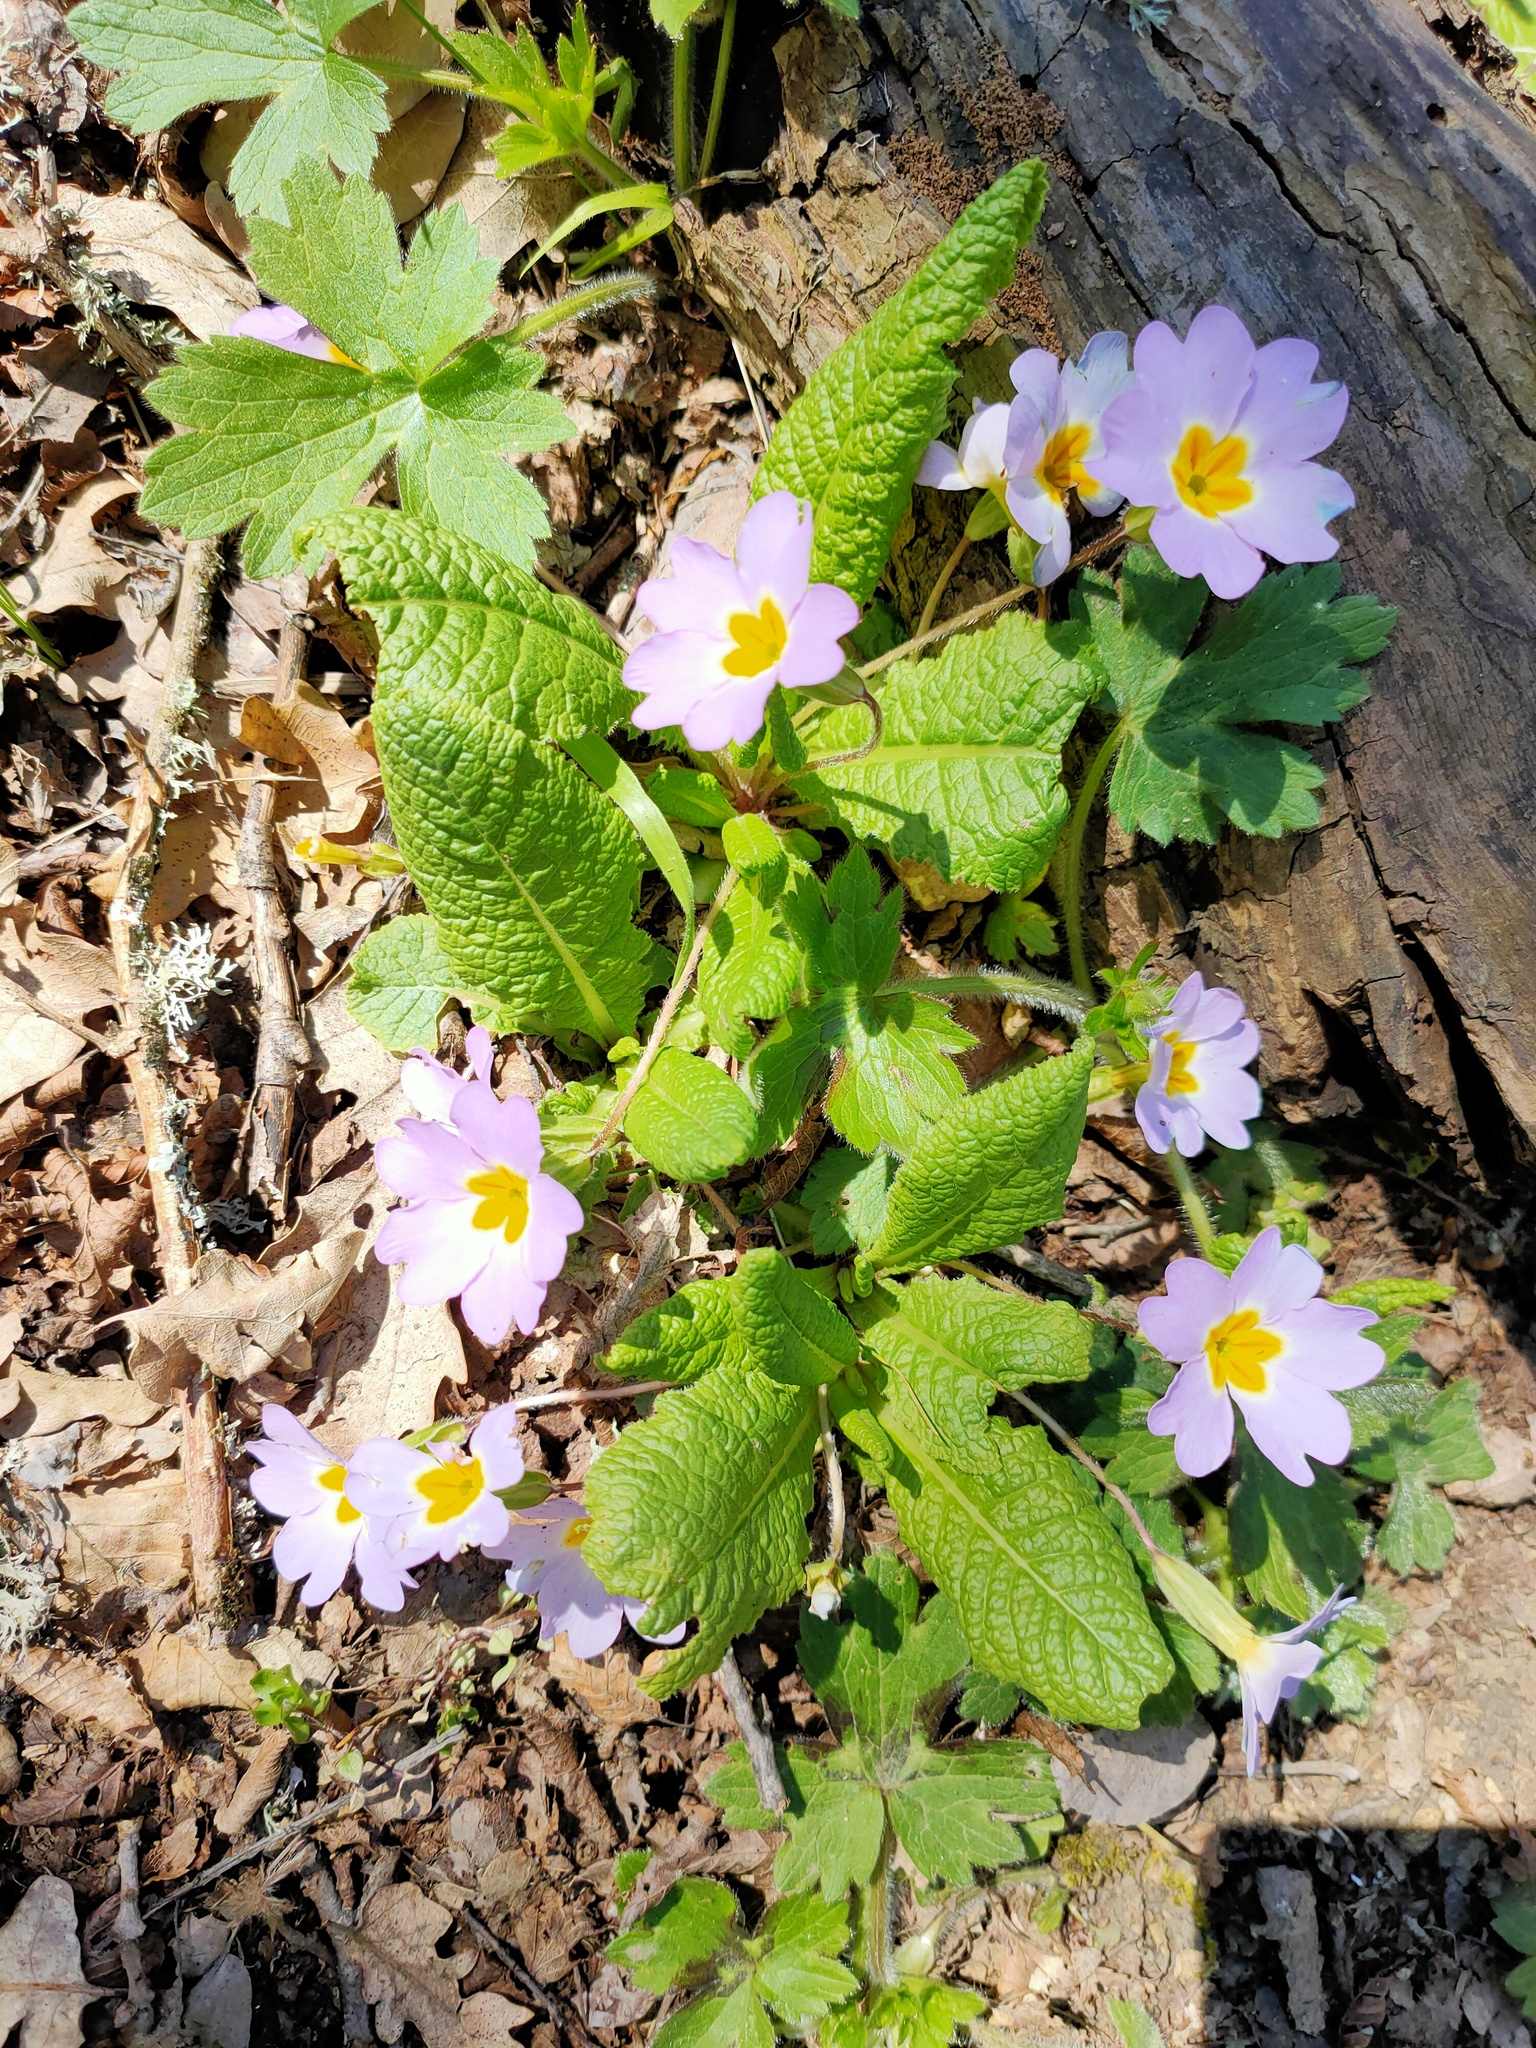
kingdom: Plantae
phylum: Tracheophyta
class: Magnoliopsida
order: Ericales
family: Primulaceae
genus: Primula
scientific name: Primula vulgaris
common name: Primrose
